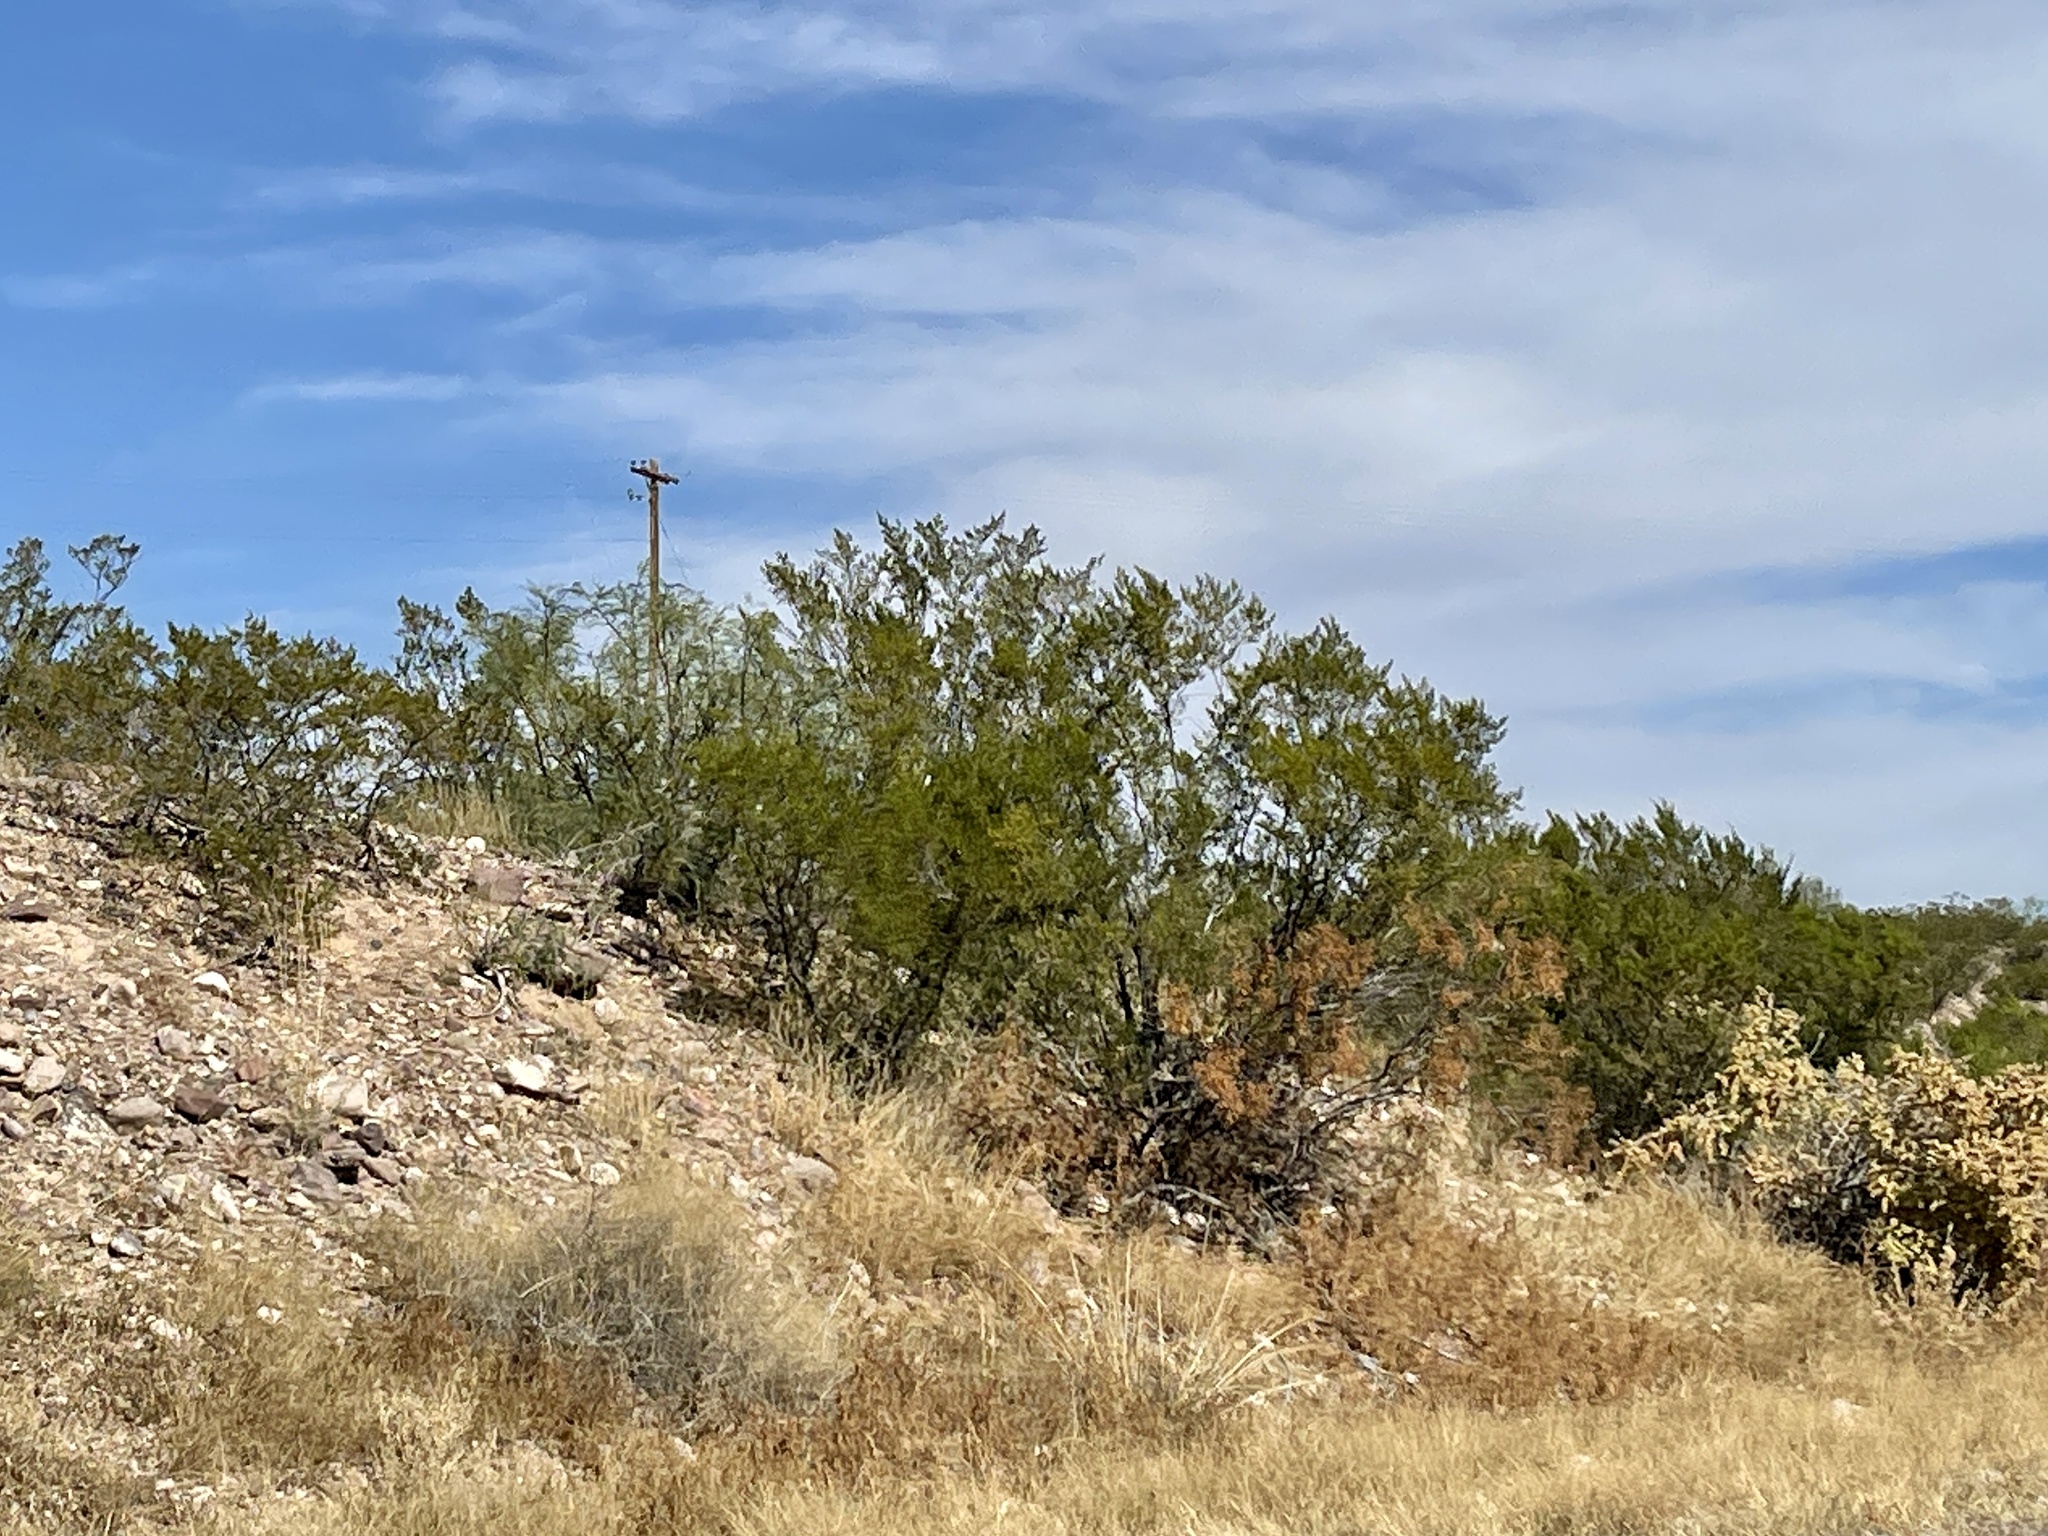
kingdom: Plantae
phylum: Tracheophyta
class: Magnoliopsida
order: Zygophyllales
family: Zygophyllaceae
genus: Larrea
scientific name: Larrea tridentata
